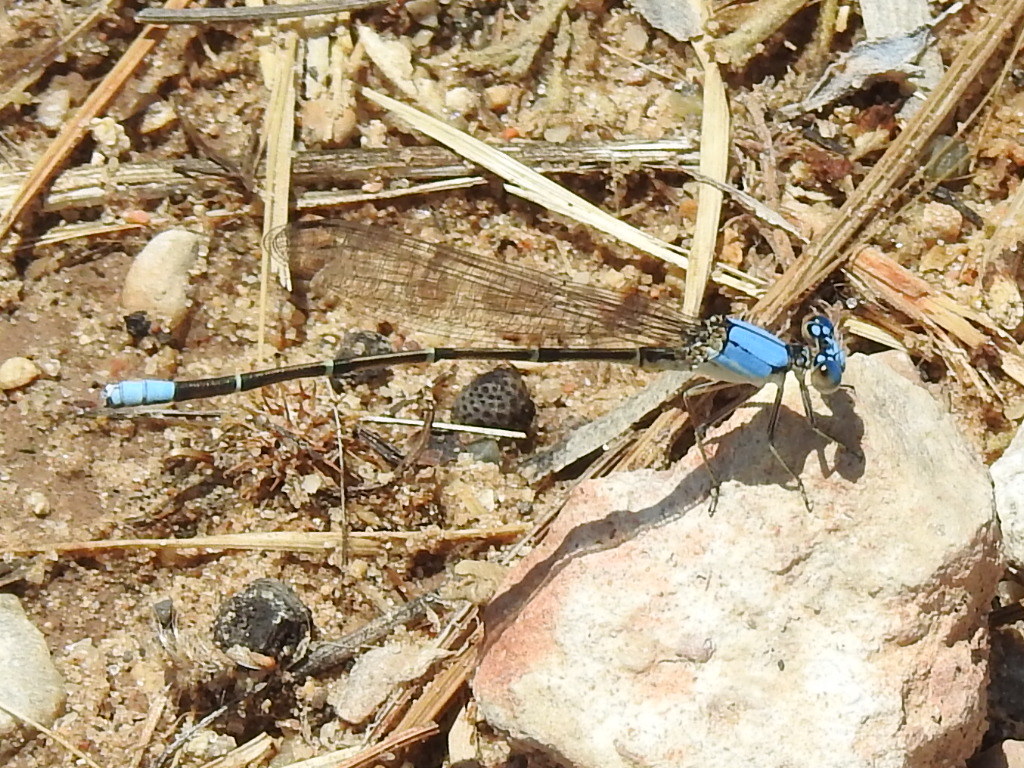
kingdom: Animalia
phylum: Arthropoda
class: Insecta
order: Odonata
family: Coenagrionidae
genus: Argia
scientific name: Argia apicalis
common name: Blue-fronted dancer
